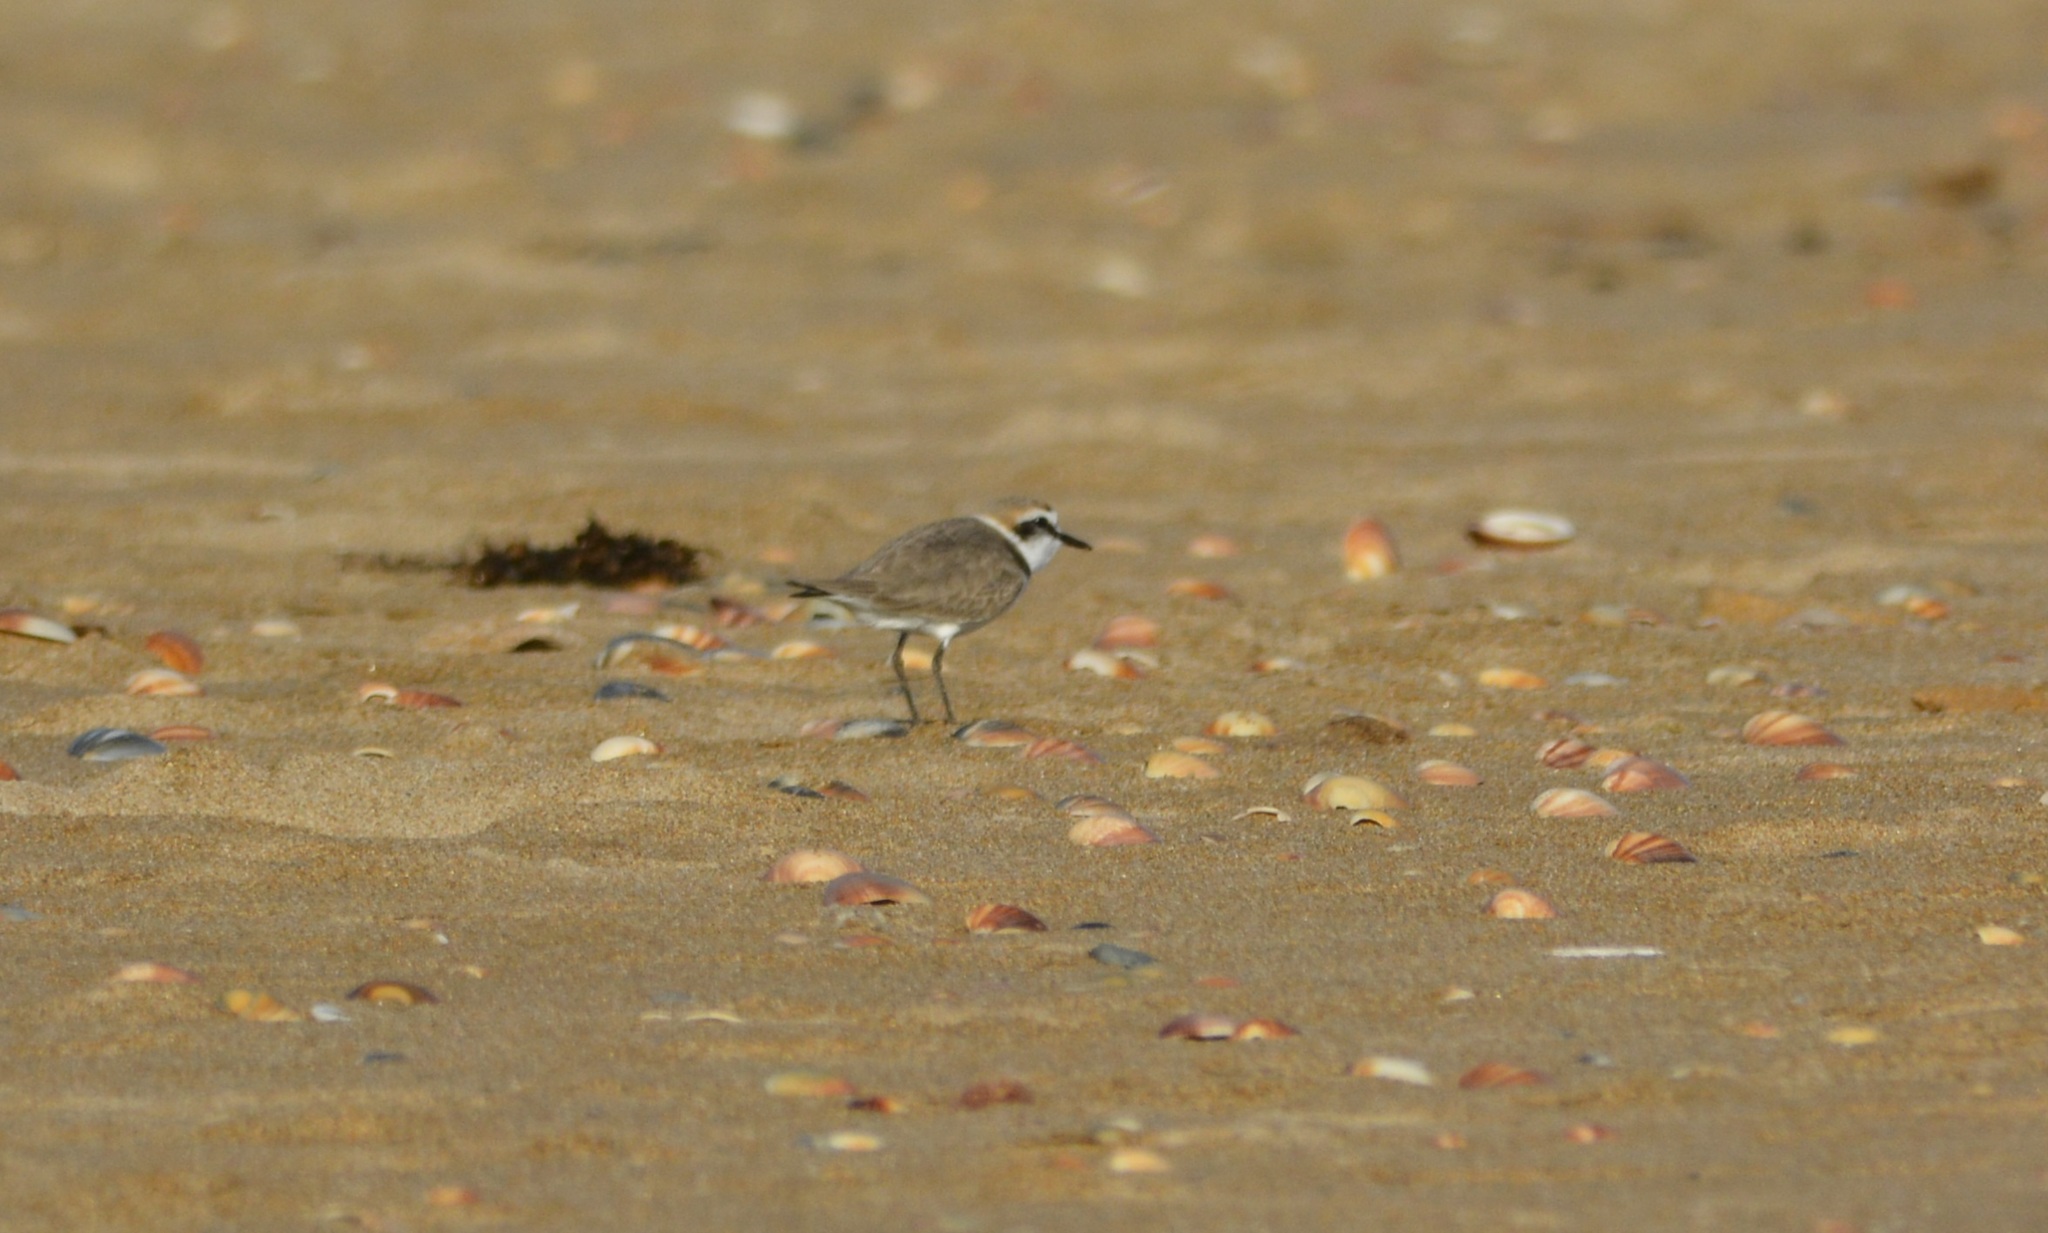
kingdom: Animalia
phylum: Chordata
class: Aves
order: Charadriiformes
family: Charadriidae
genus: Charadrius
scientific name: Charadrius alexandrinus
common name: Kentish plover
